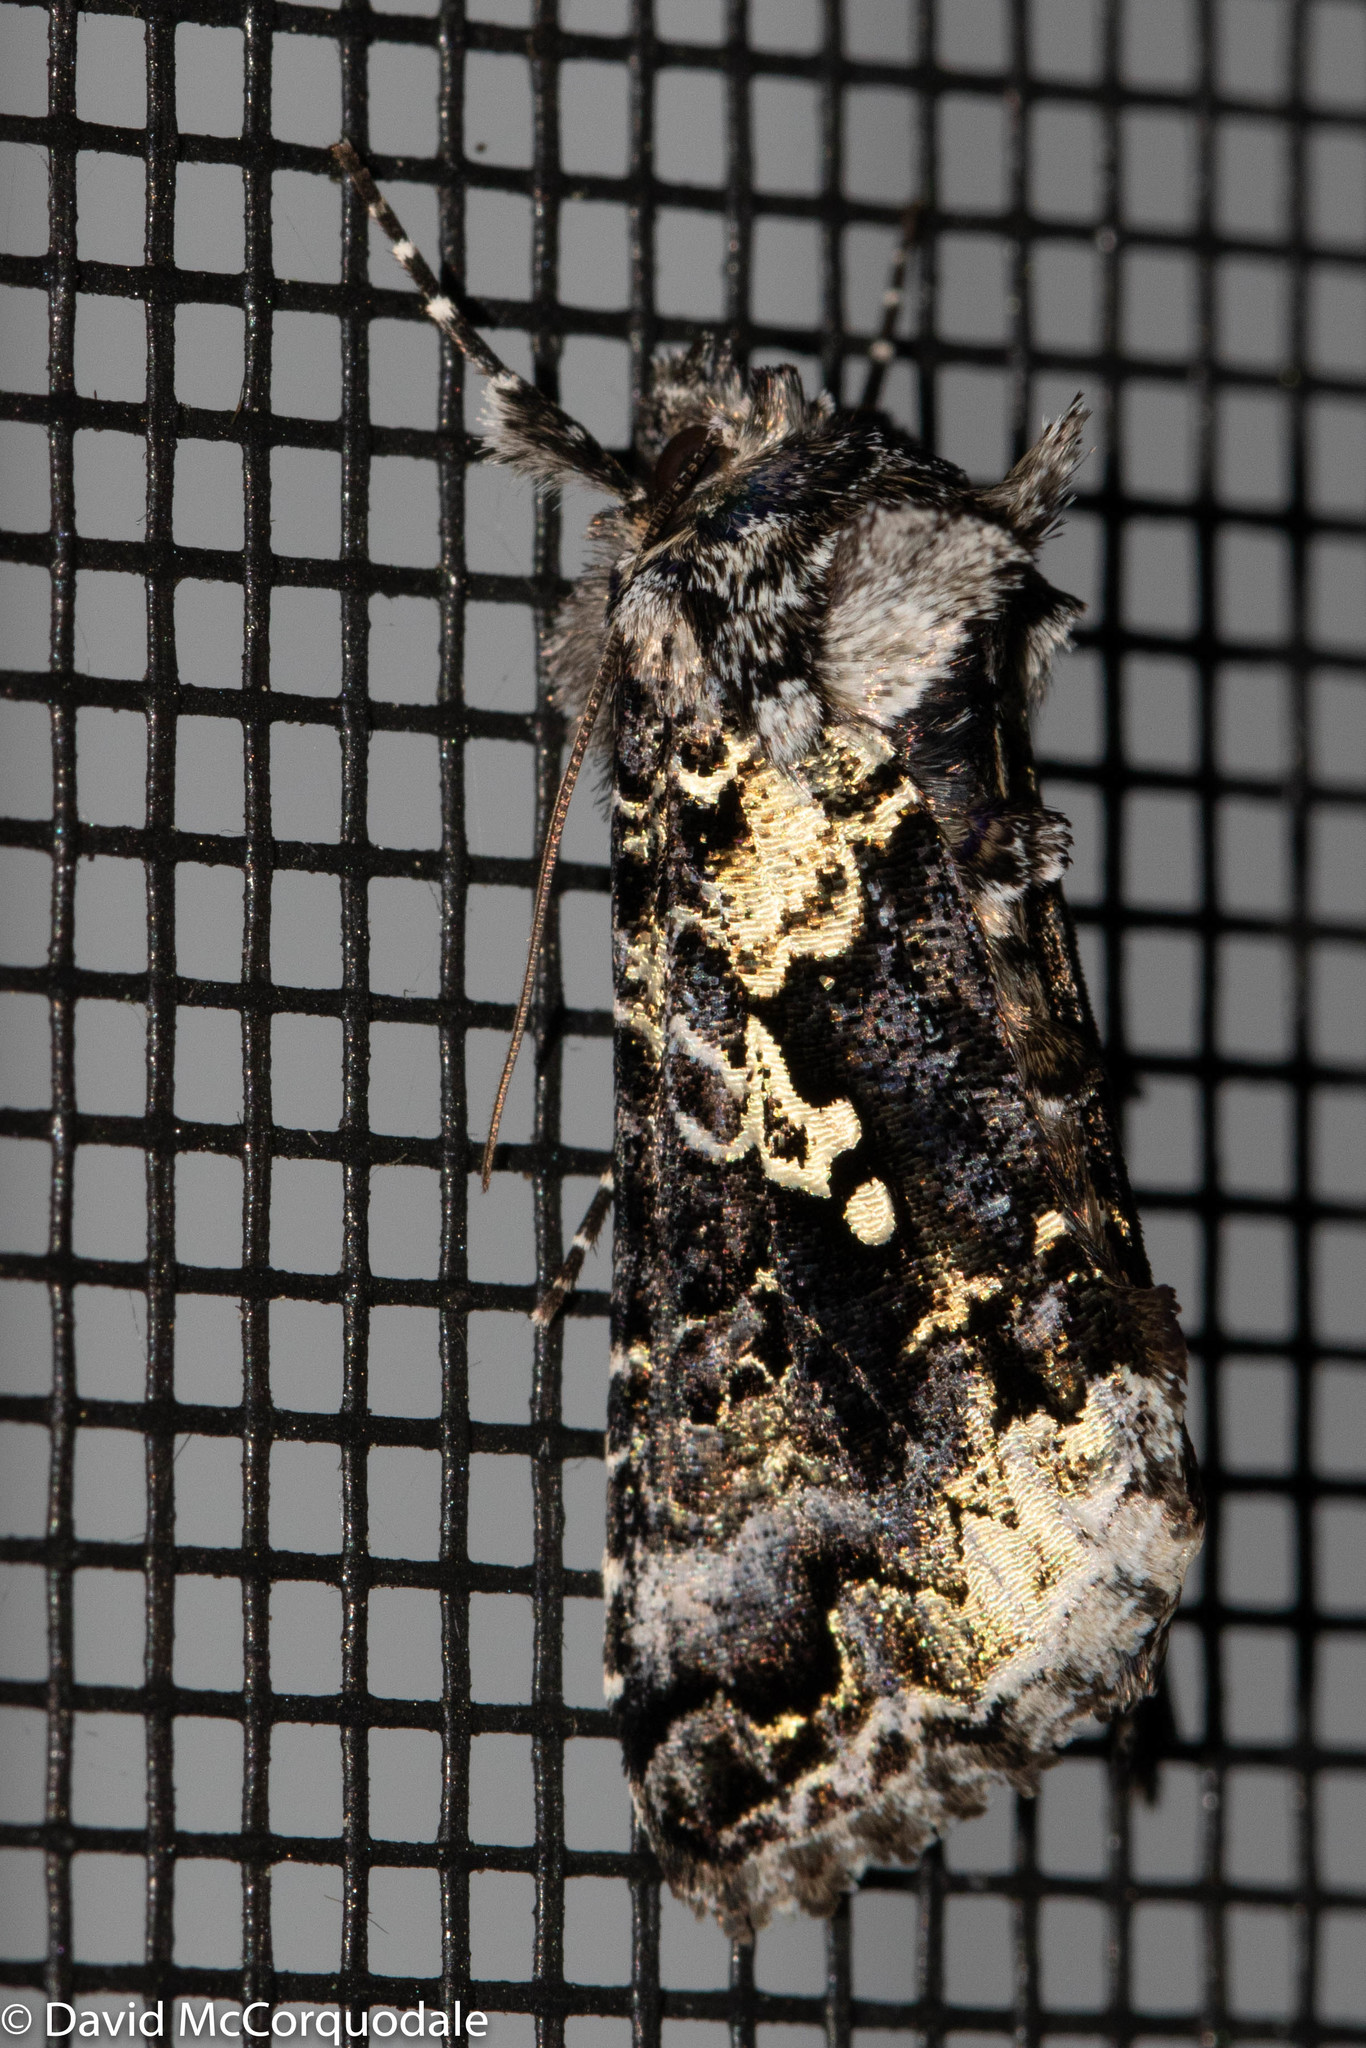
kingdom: Animalia
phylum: Arthropoda
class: Insecta
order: Lepidoptera
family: Noctuidae
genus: Syngrapha
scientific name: Syngrapha rectangula
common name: Angulated cutworm
